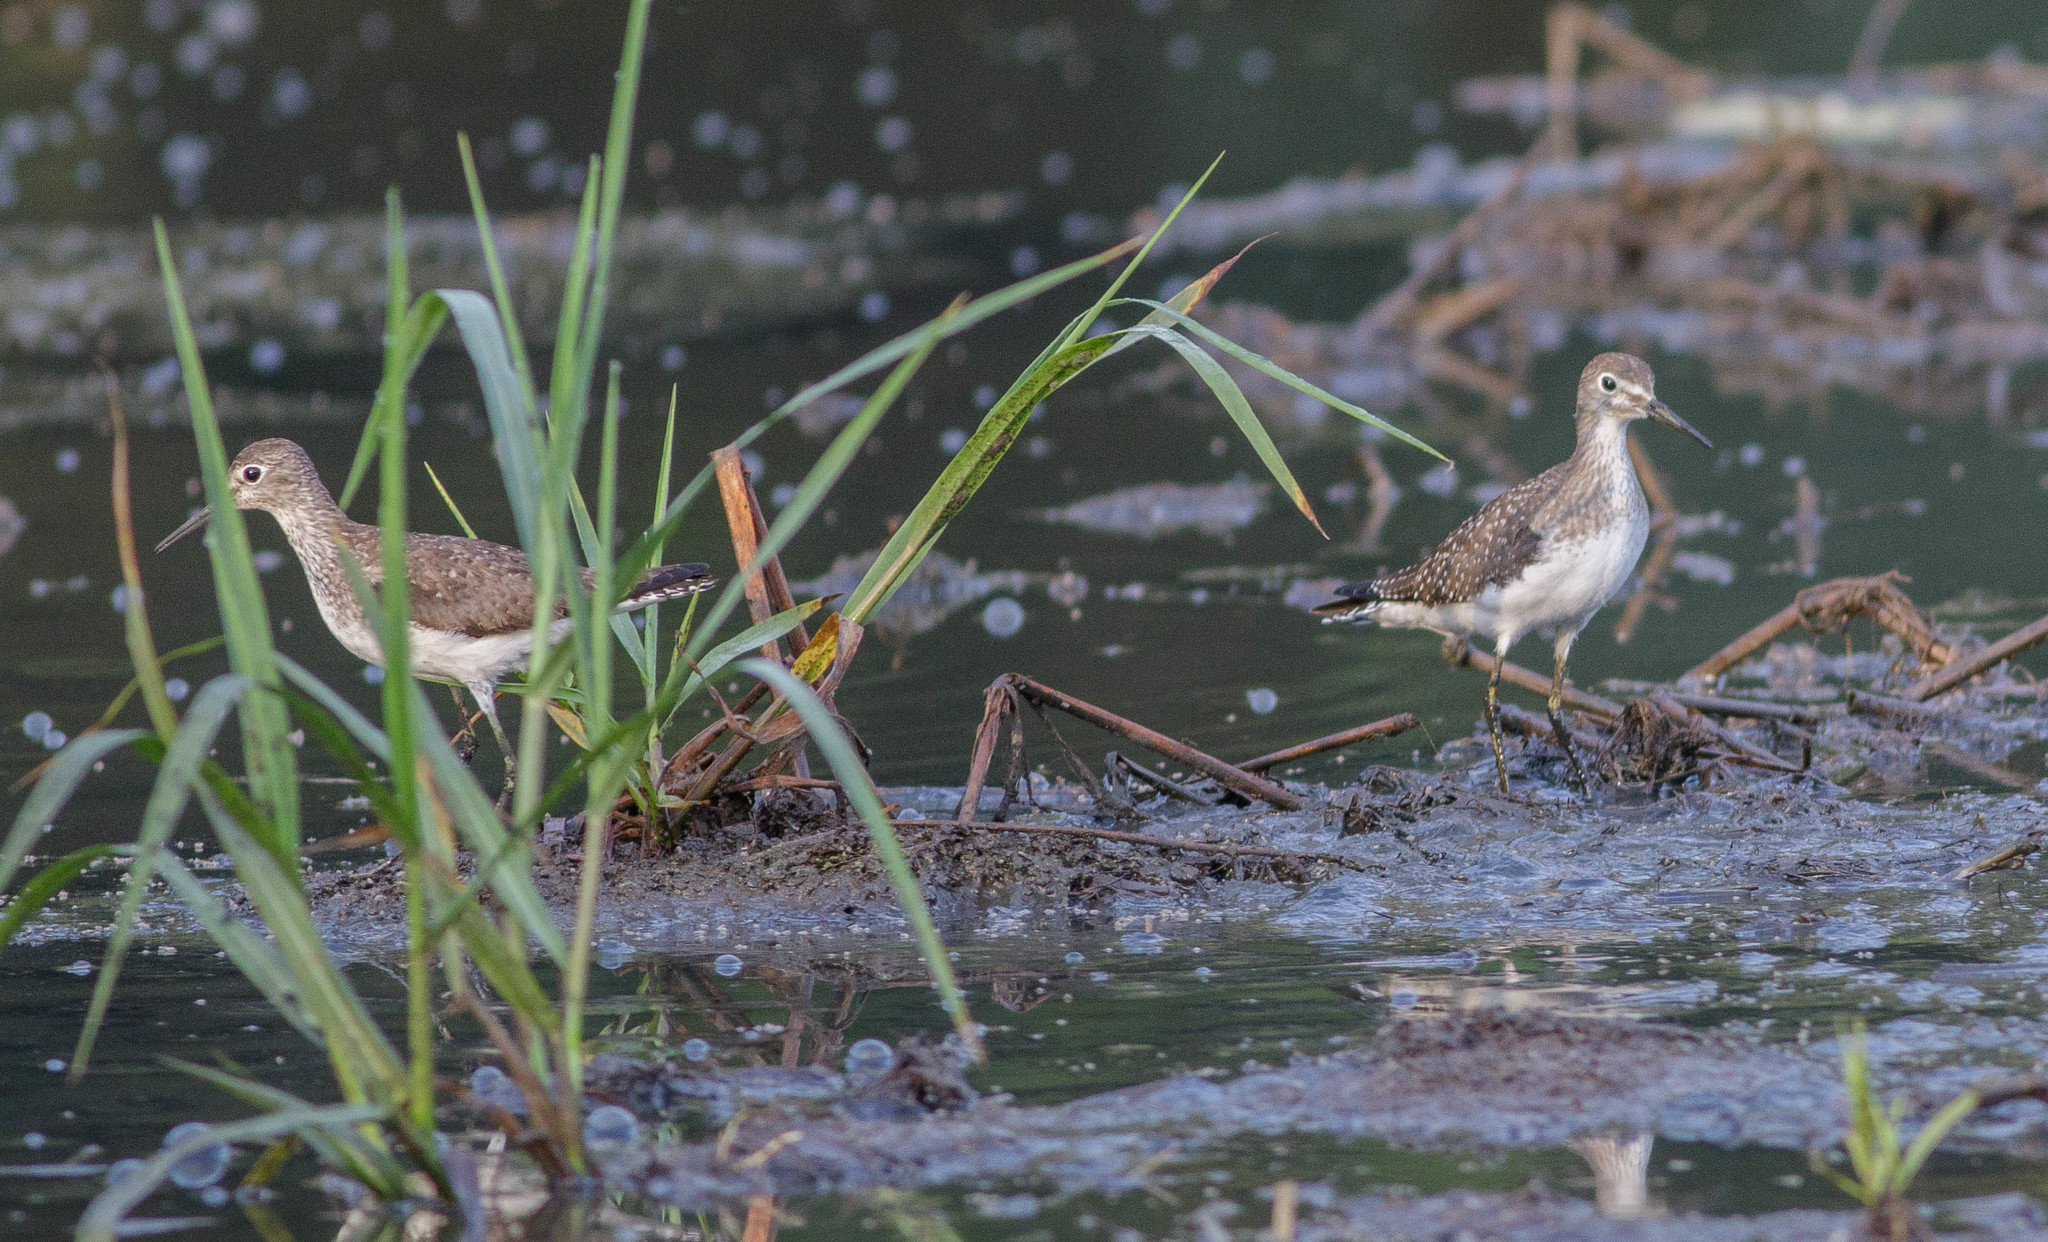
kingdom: Animalia
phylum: Chordata
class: Aves
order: Charadriiformes
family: Scolopacidae
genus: Tringa
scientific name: Tringa solitaria
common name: Solitary sandpiper
